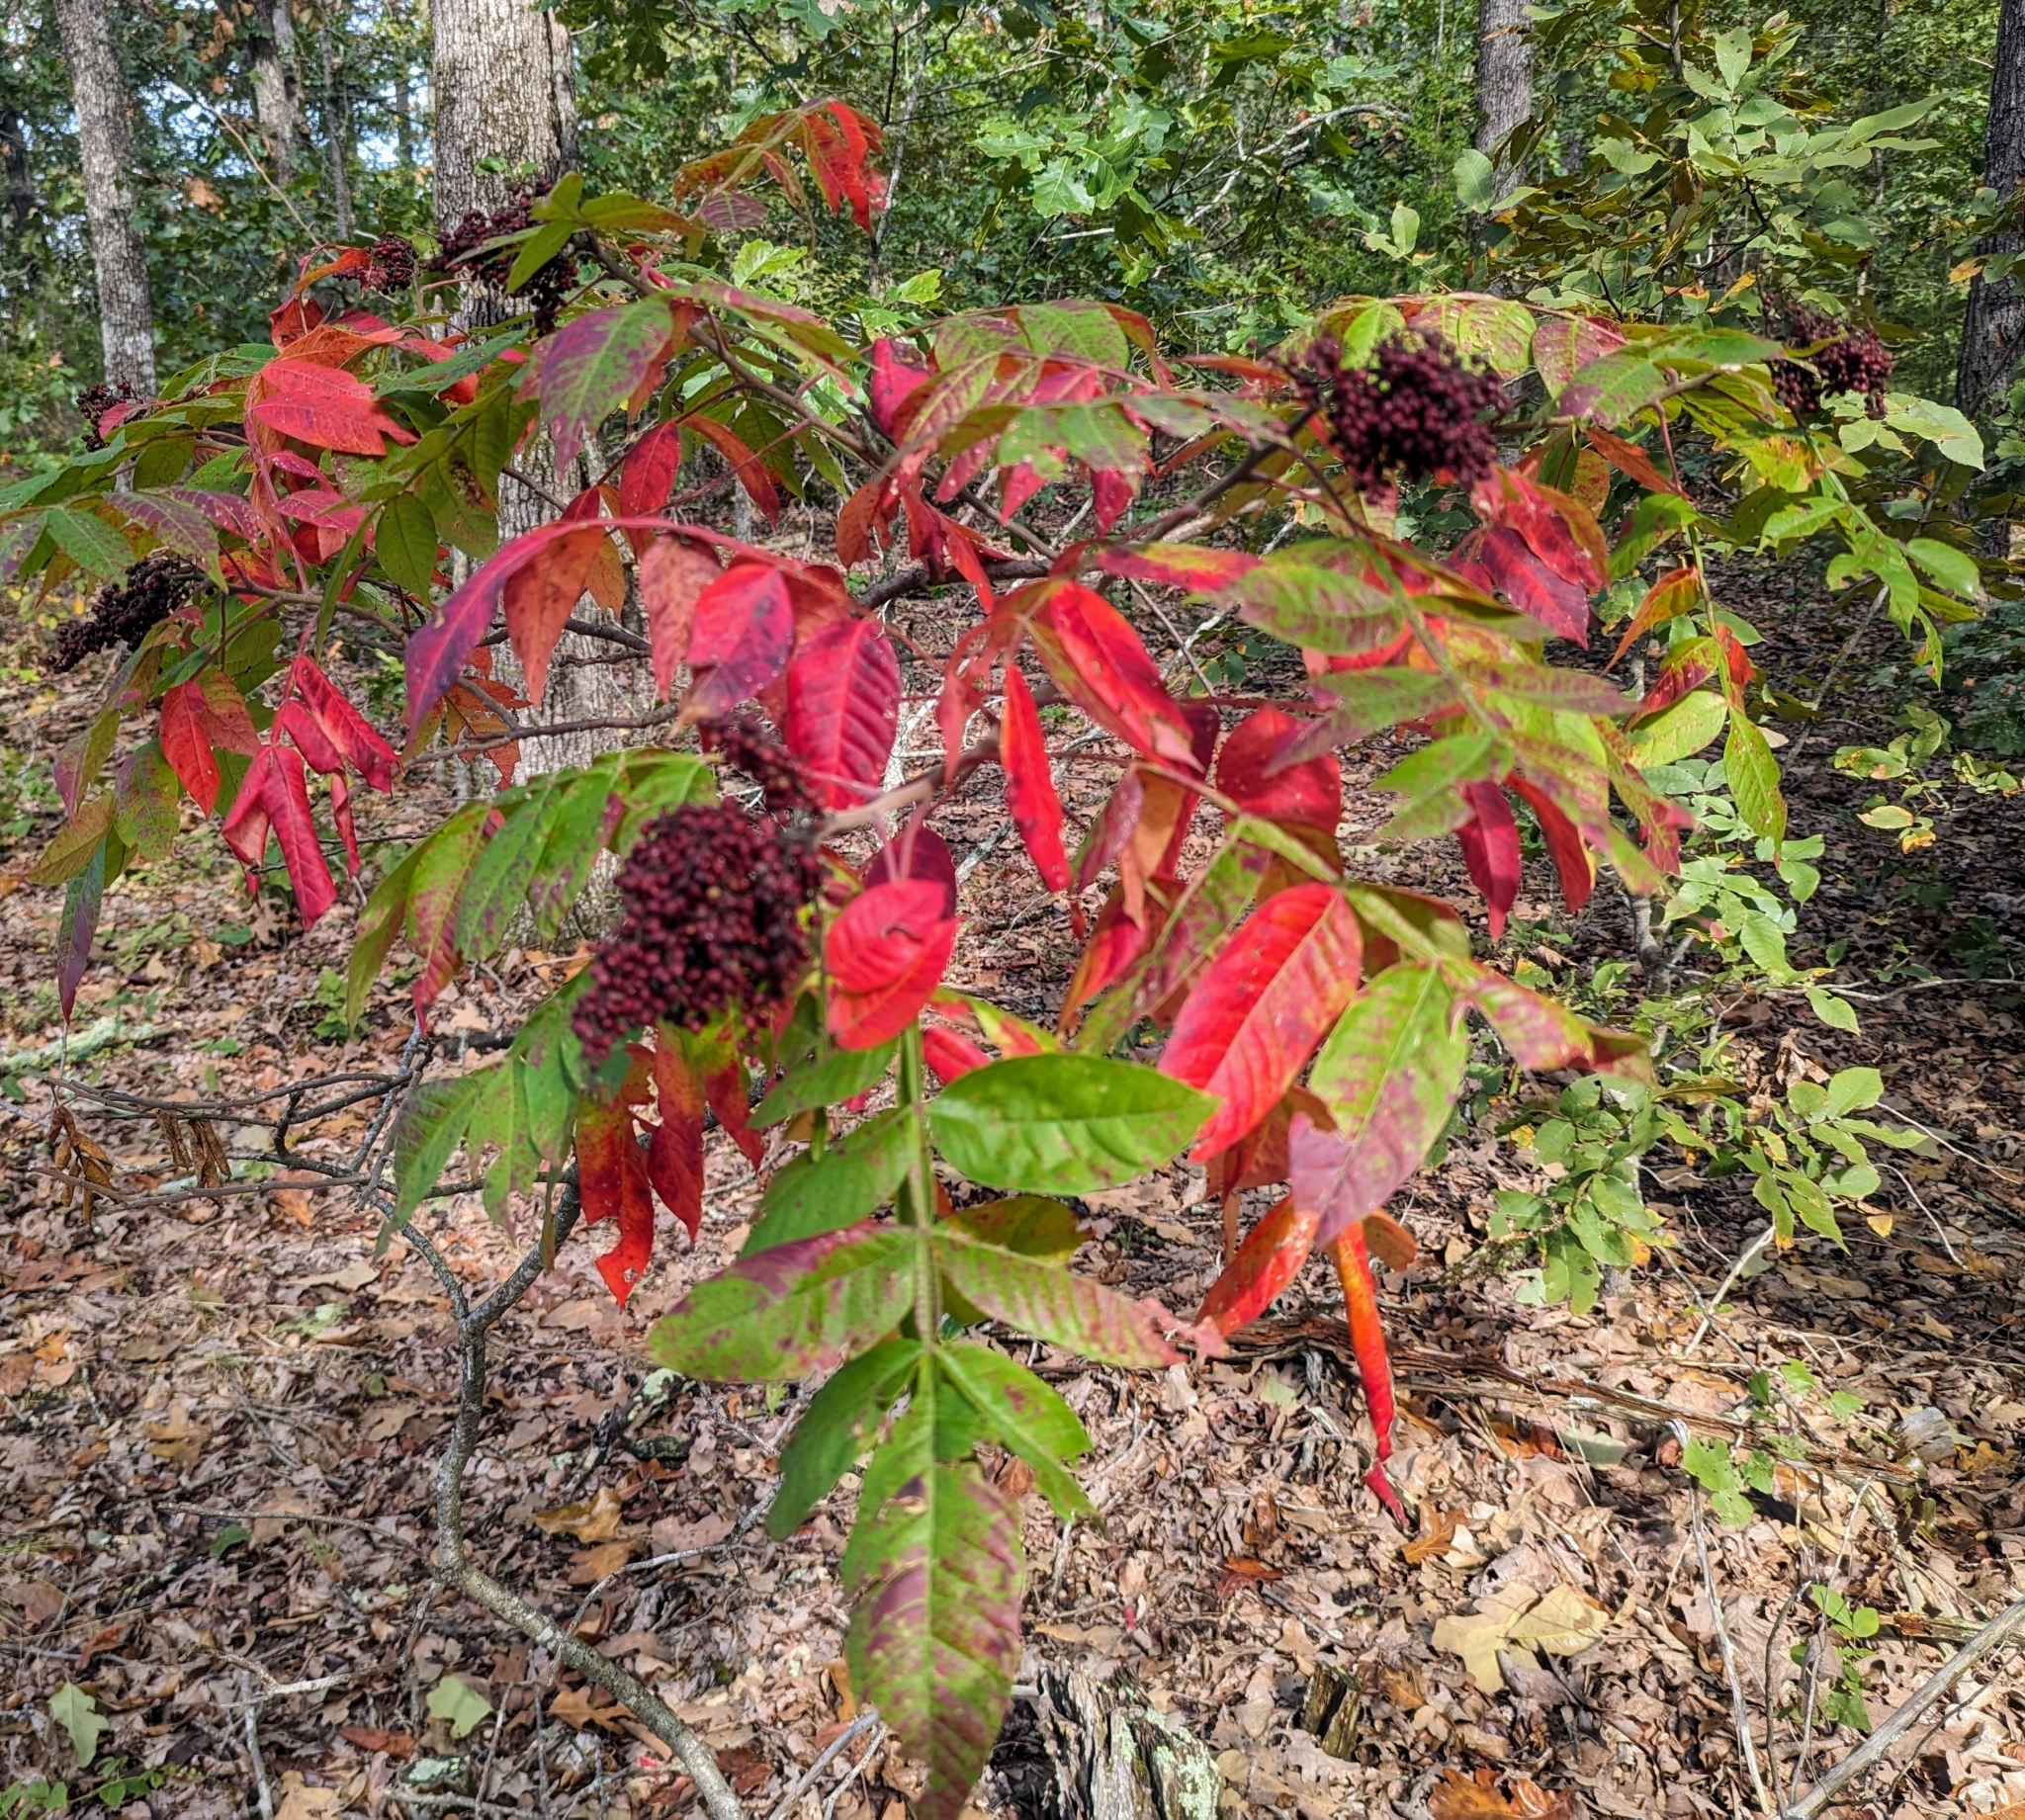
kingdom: Plantae
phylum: Tracheophyta
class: Magnoliopsida
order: Sapindales
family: Anacardiaceae
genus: Rhus
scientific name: Rhus copallina
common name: Shining sumac
